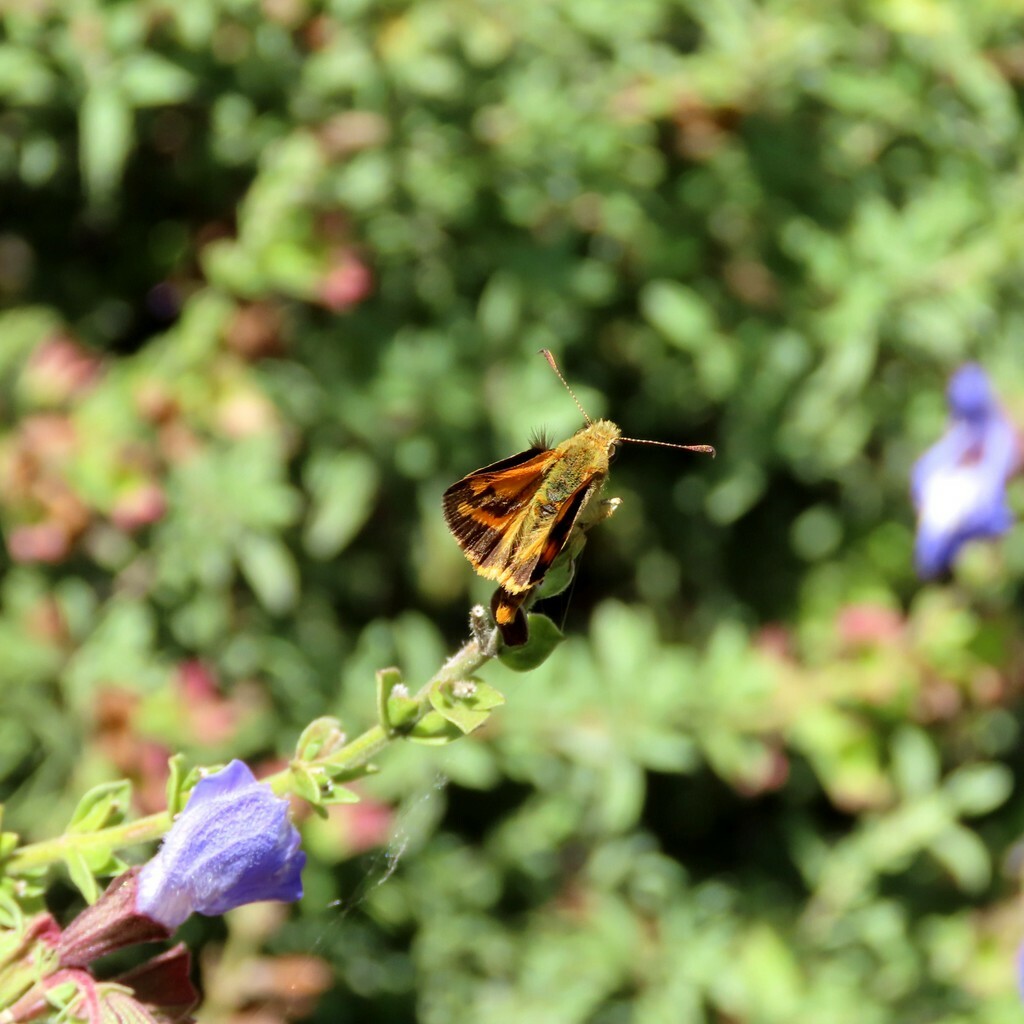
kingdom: Animalia
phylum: Arthropoda
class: Insecta
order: Lepidoptera
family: Hesperiidae
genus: Ocybadistes
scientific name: Ocybadistes walkeri
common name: Yellow-banded dart
